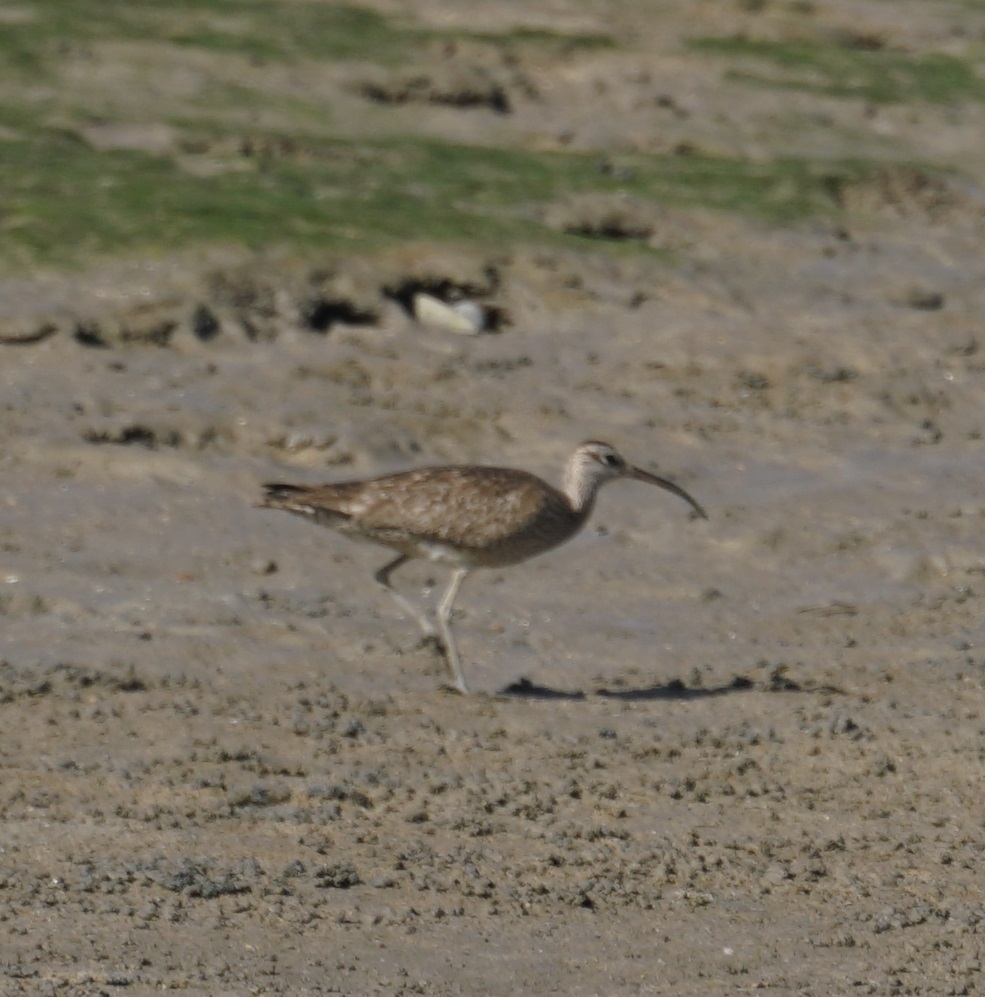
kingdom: Animalia
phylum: Chordata
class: Aves
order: Charadriiformes
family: Scolopacidae
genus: Numenius
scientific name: Numenius phaeopus
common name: Whimbrel
